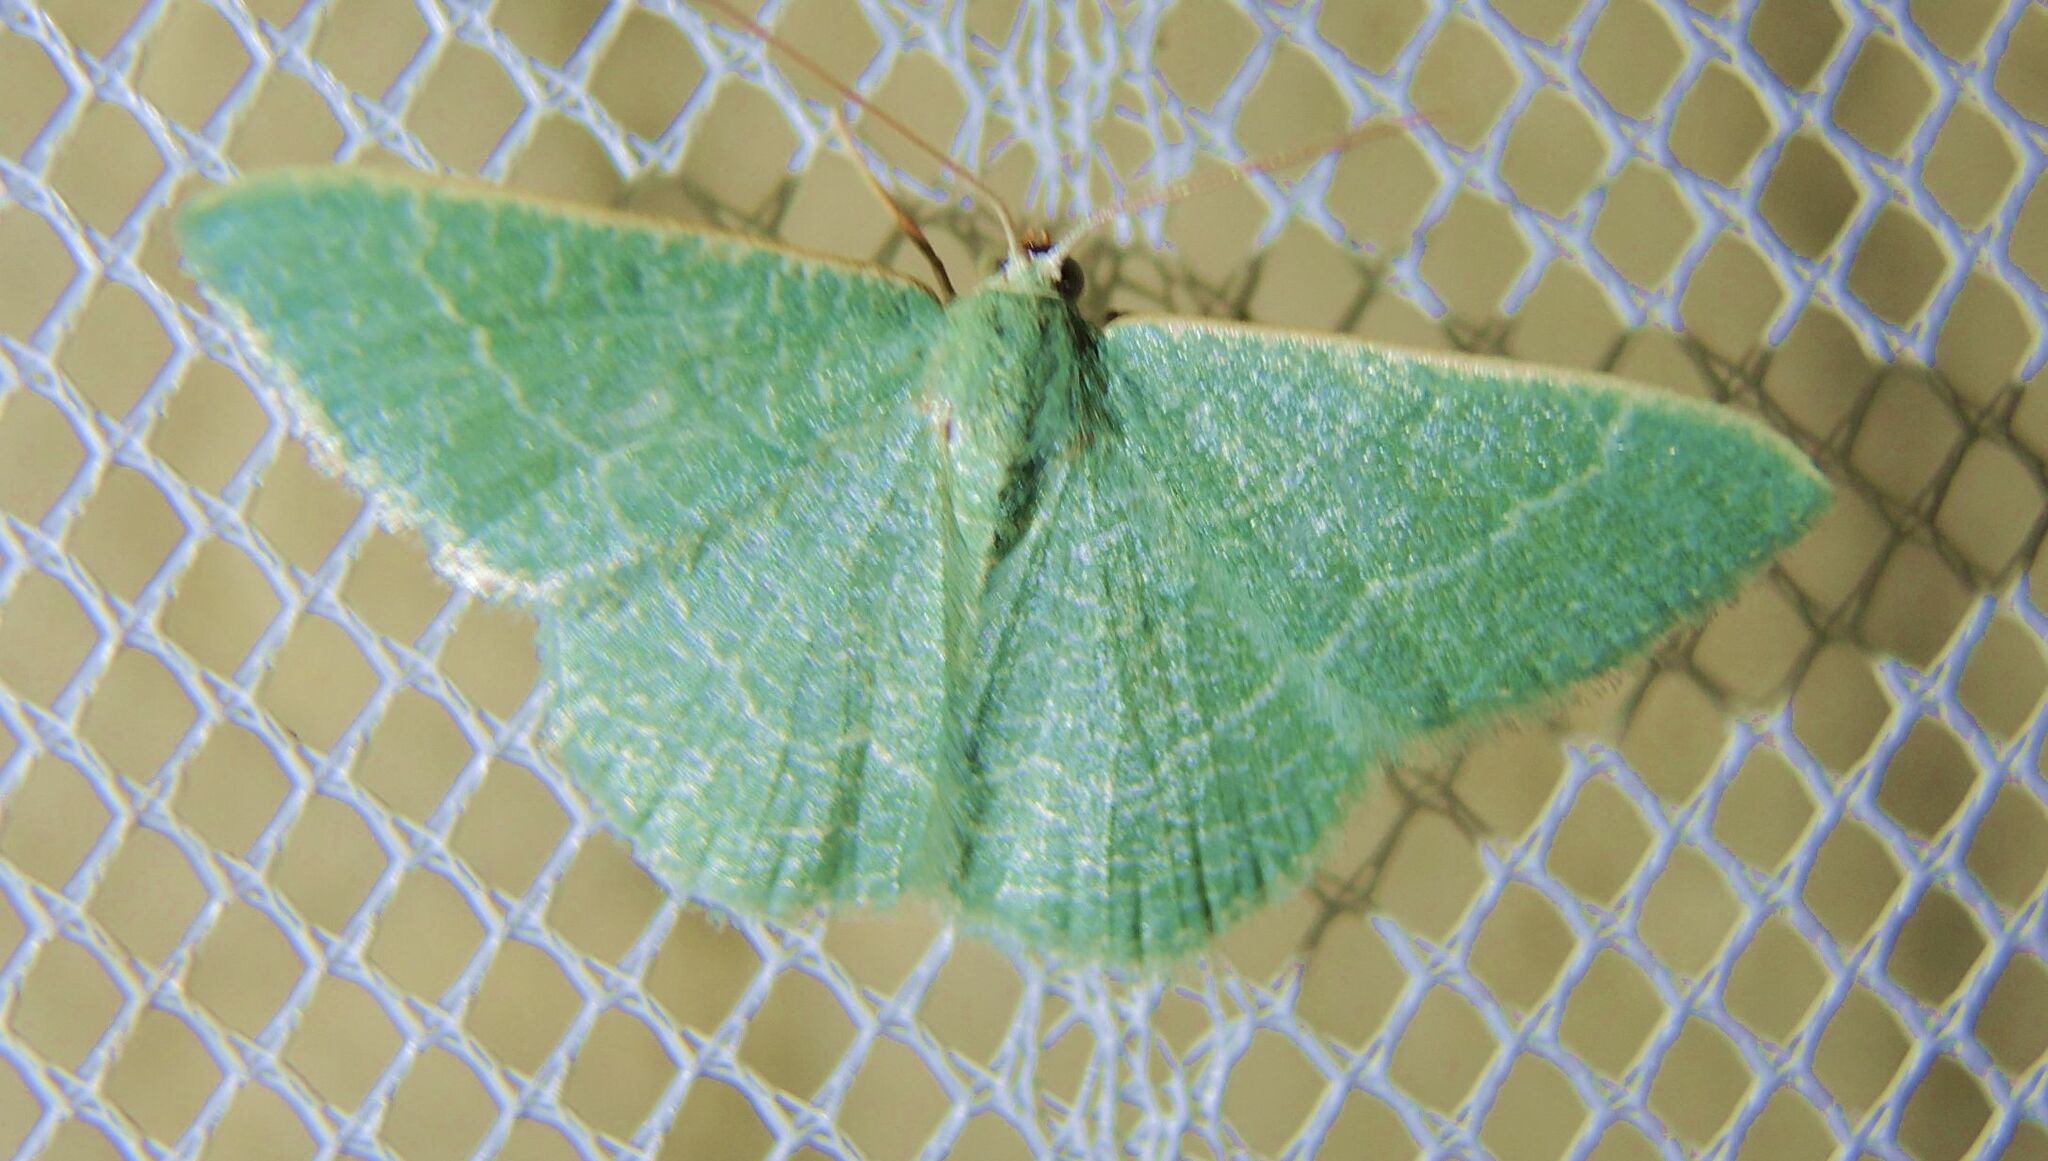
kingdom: Animalia
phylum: Arthropoda
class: Insecta
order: Lepidoptera
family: Geometridae
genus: Chlorissa
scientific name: Chlorissa etruscaria
